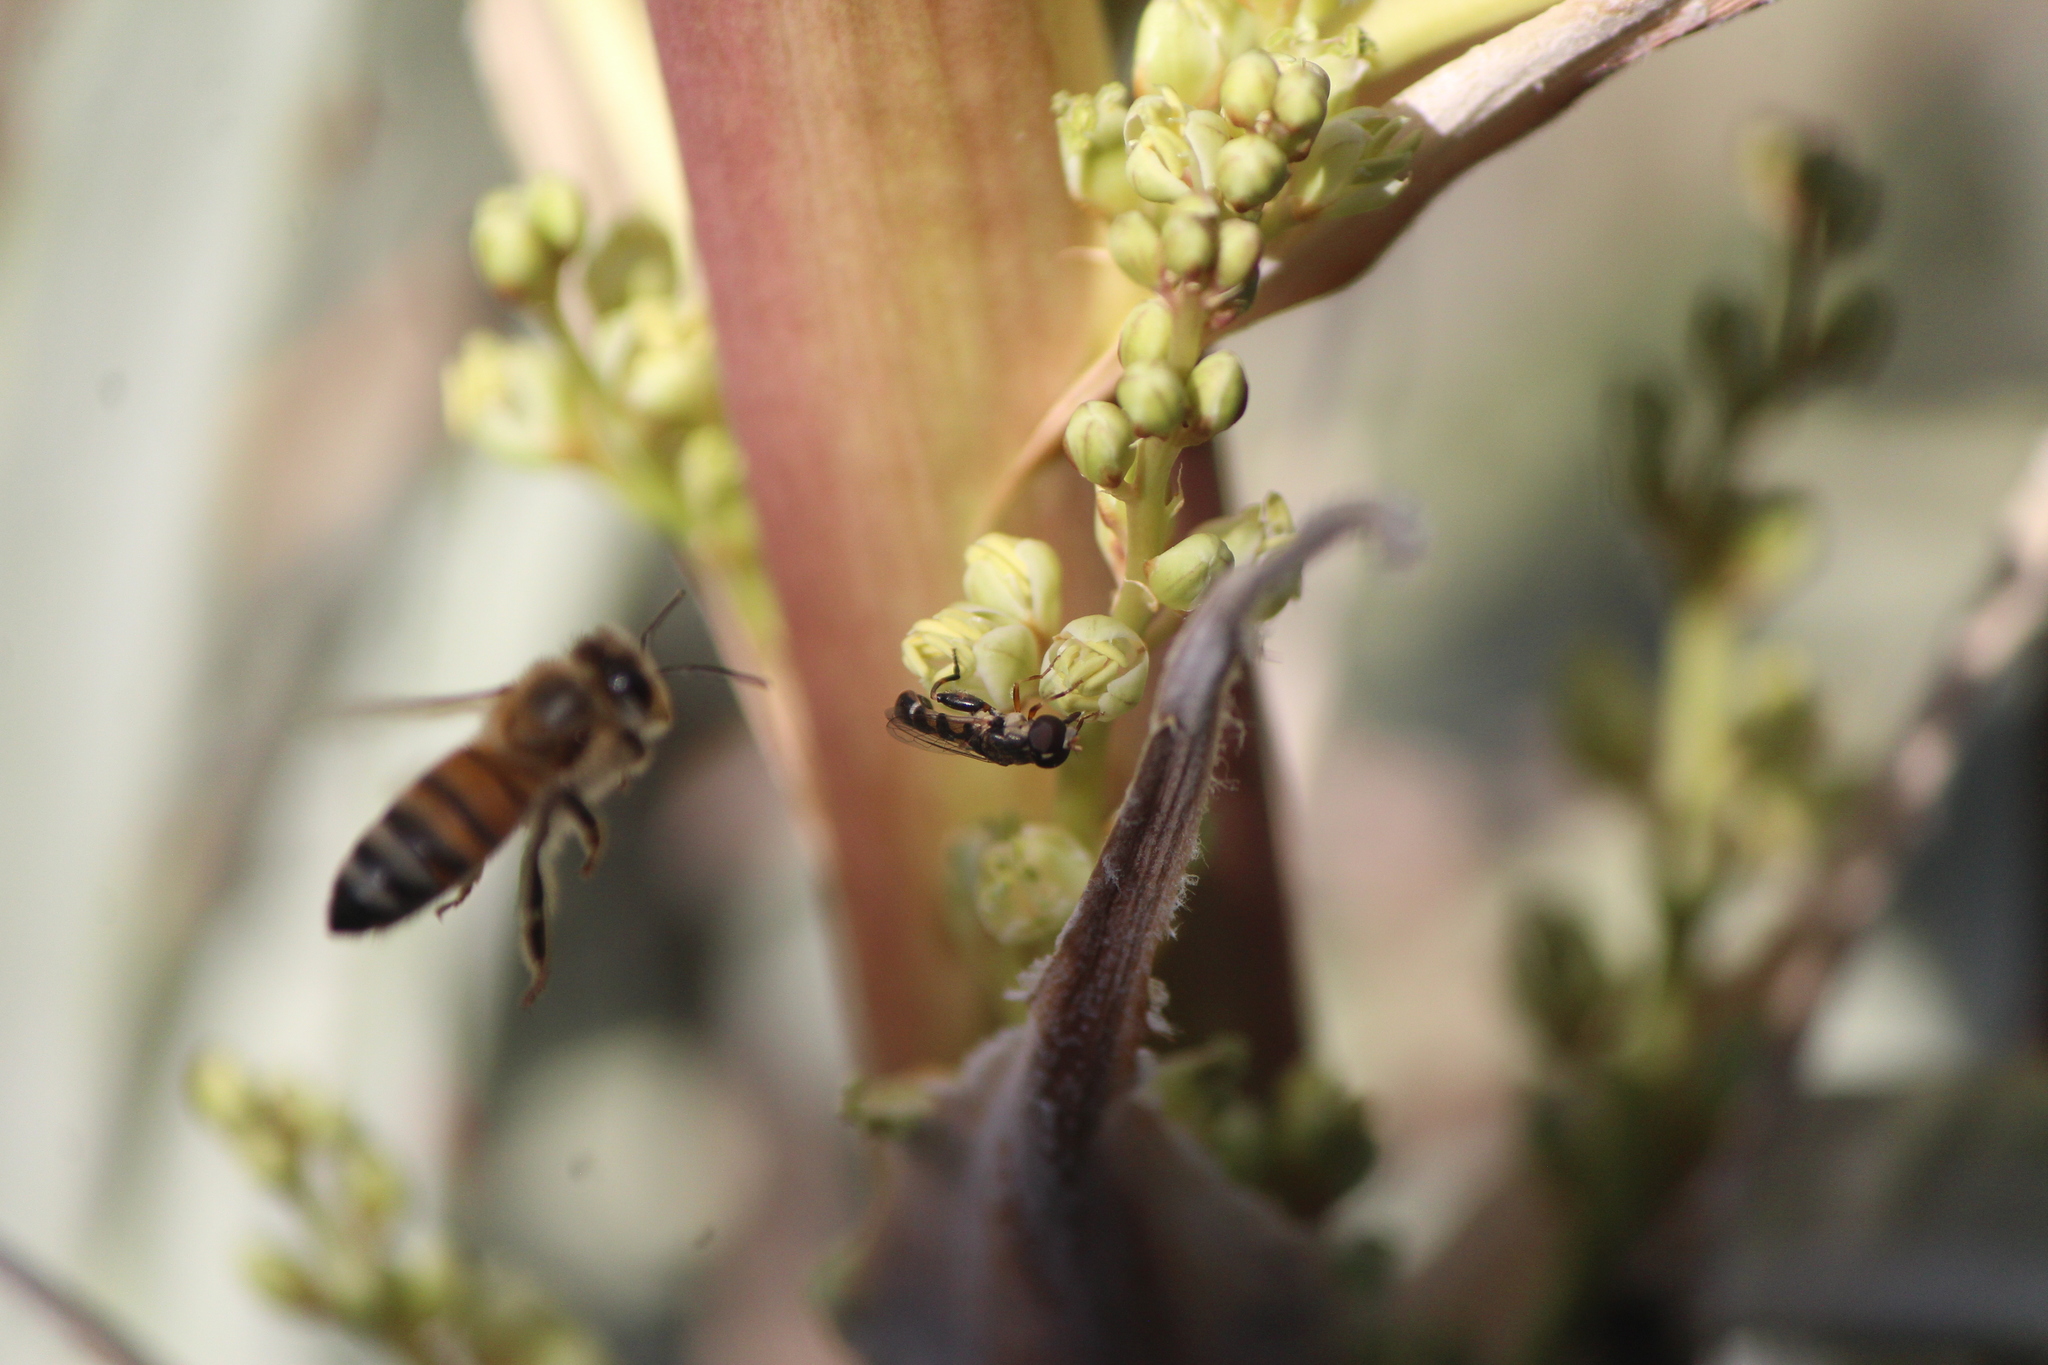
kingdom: Animalia
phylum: Arthropoda
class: Insecta
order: Hymenoptera
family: Apidae
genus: Apis
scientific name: Apis mellifera
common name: Honey bee
